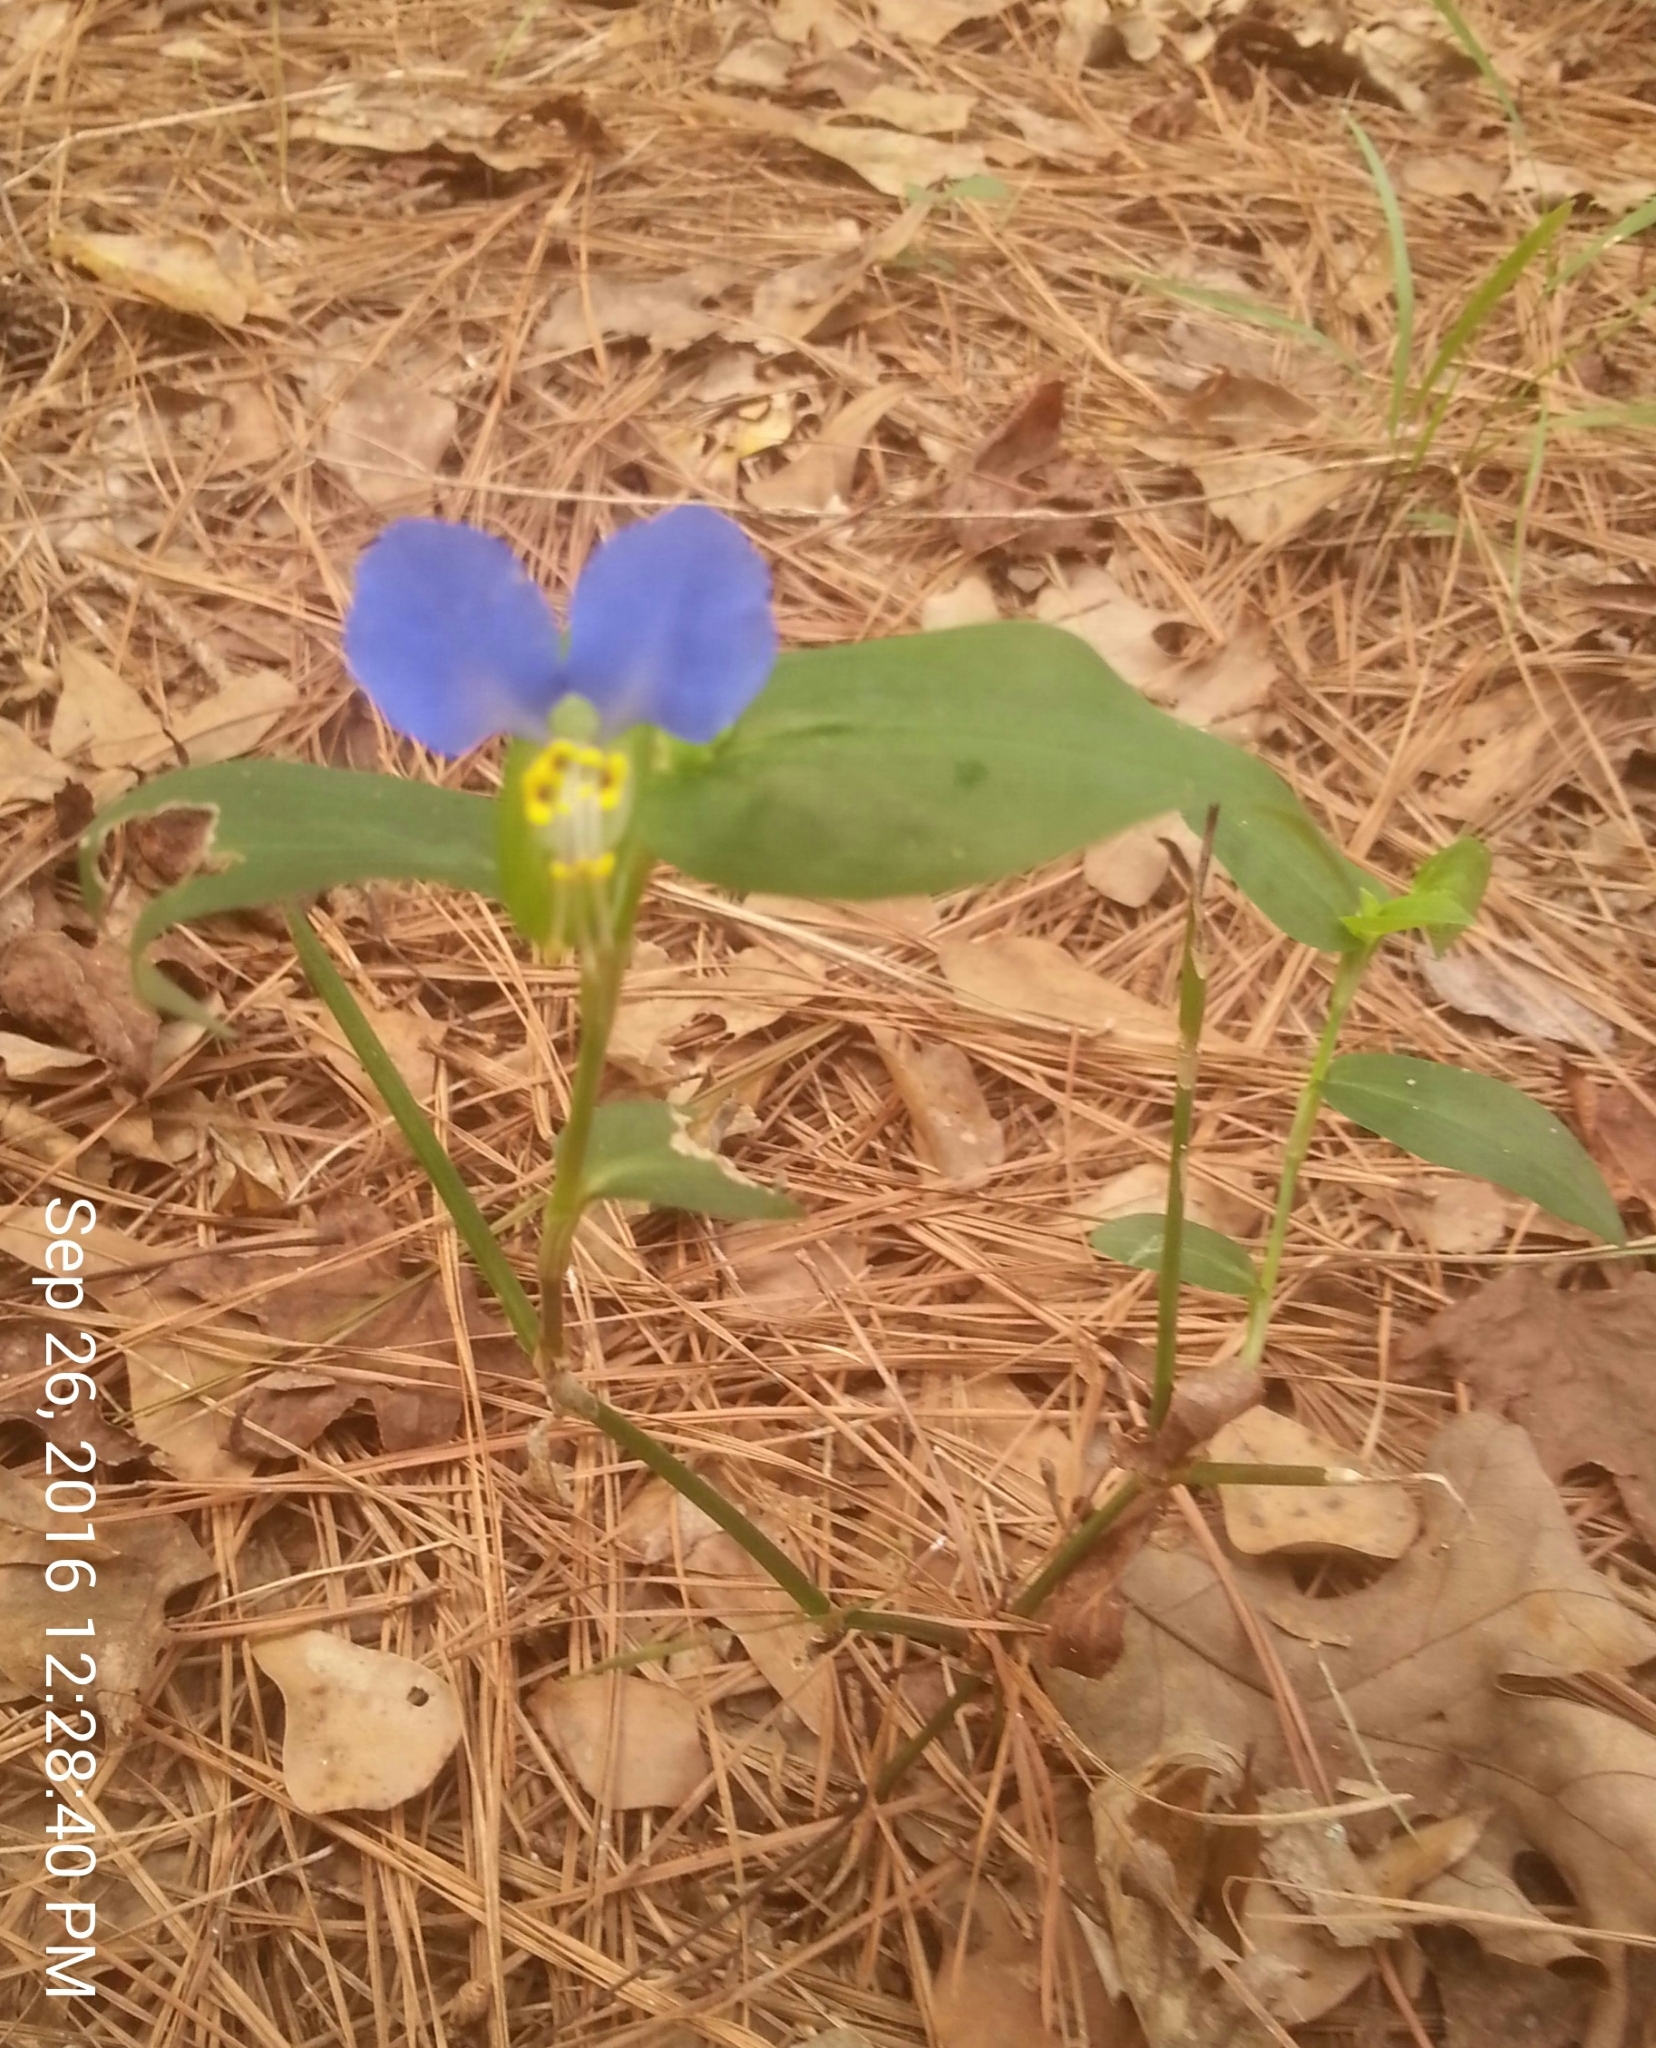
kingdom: Plantae
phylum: Tracheophyta
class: Liliopsida
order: Commelinales
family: Commelinaceae
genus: Commelina
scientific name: Commelina communis
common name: Asiatic dayflower
